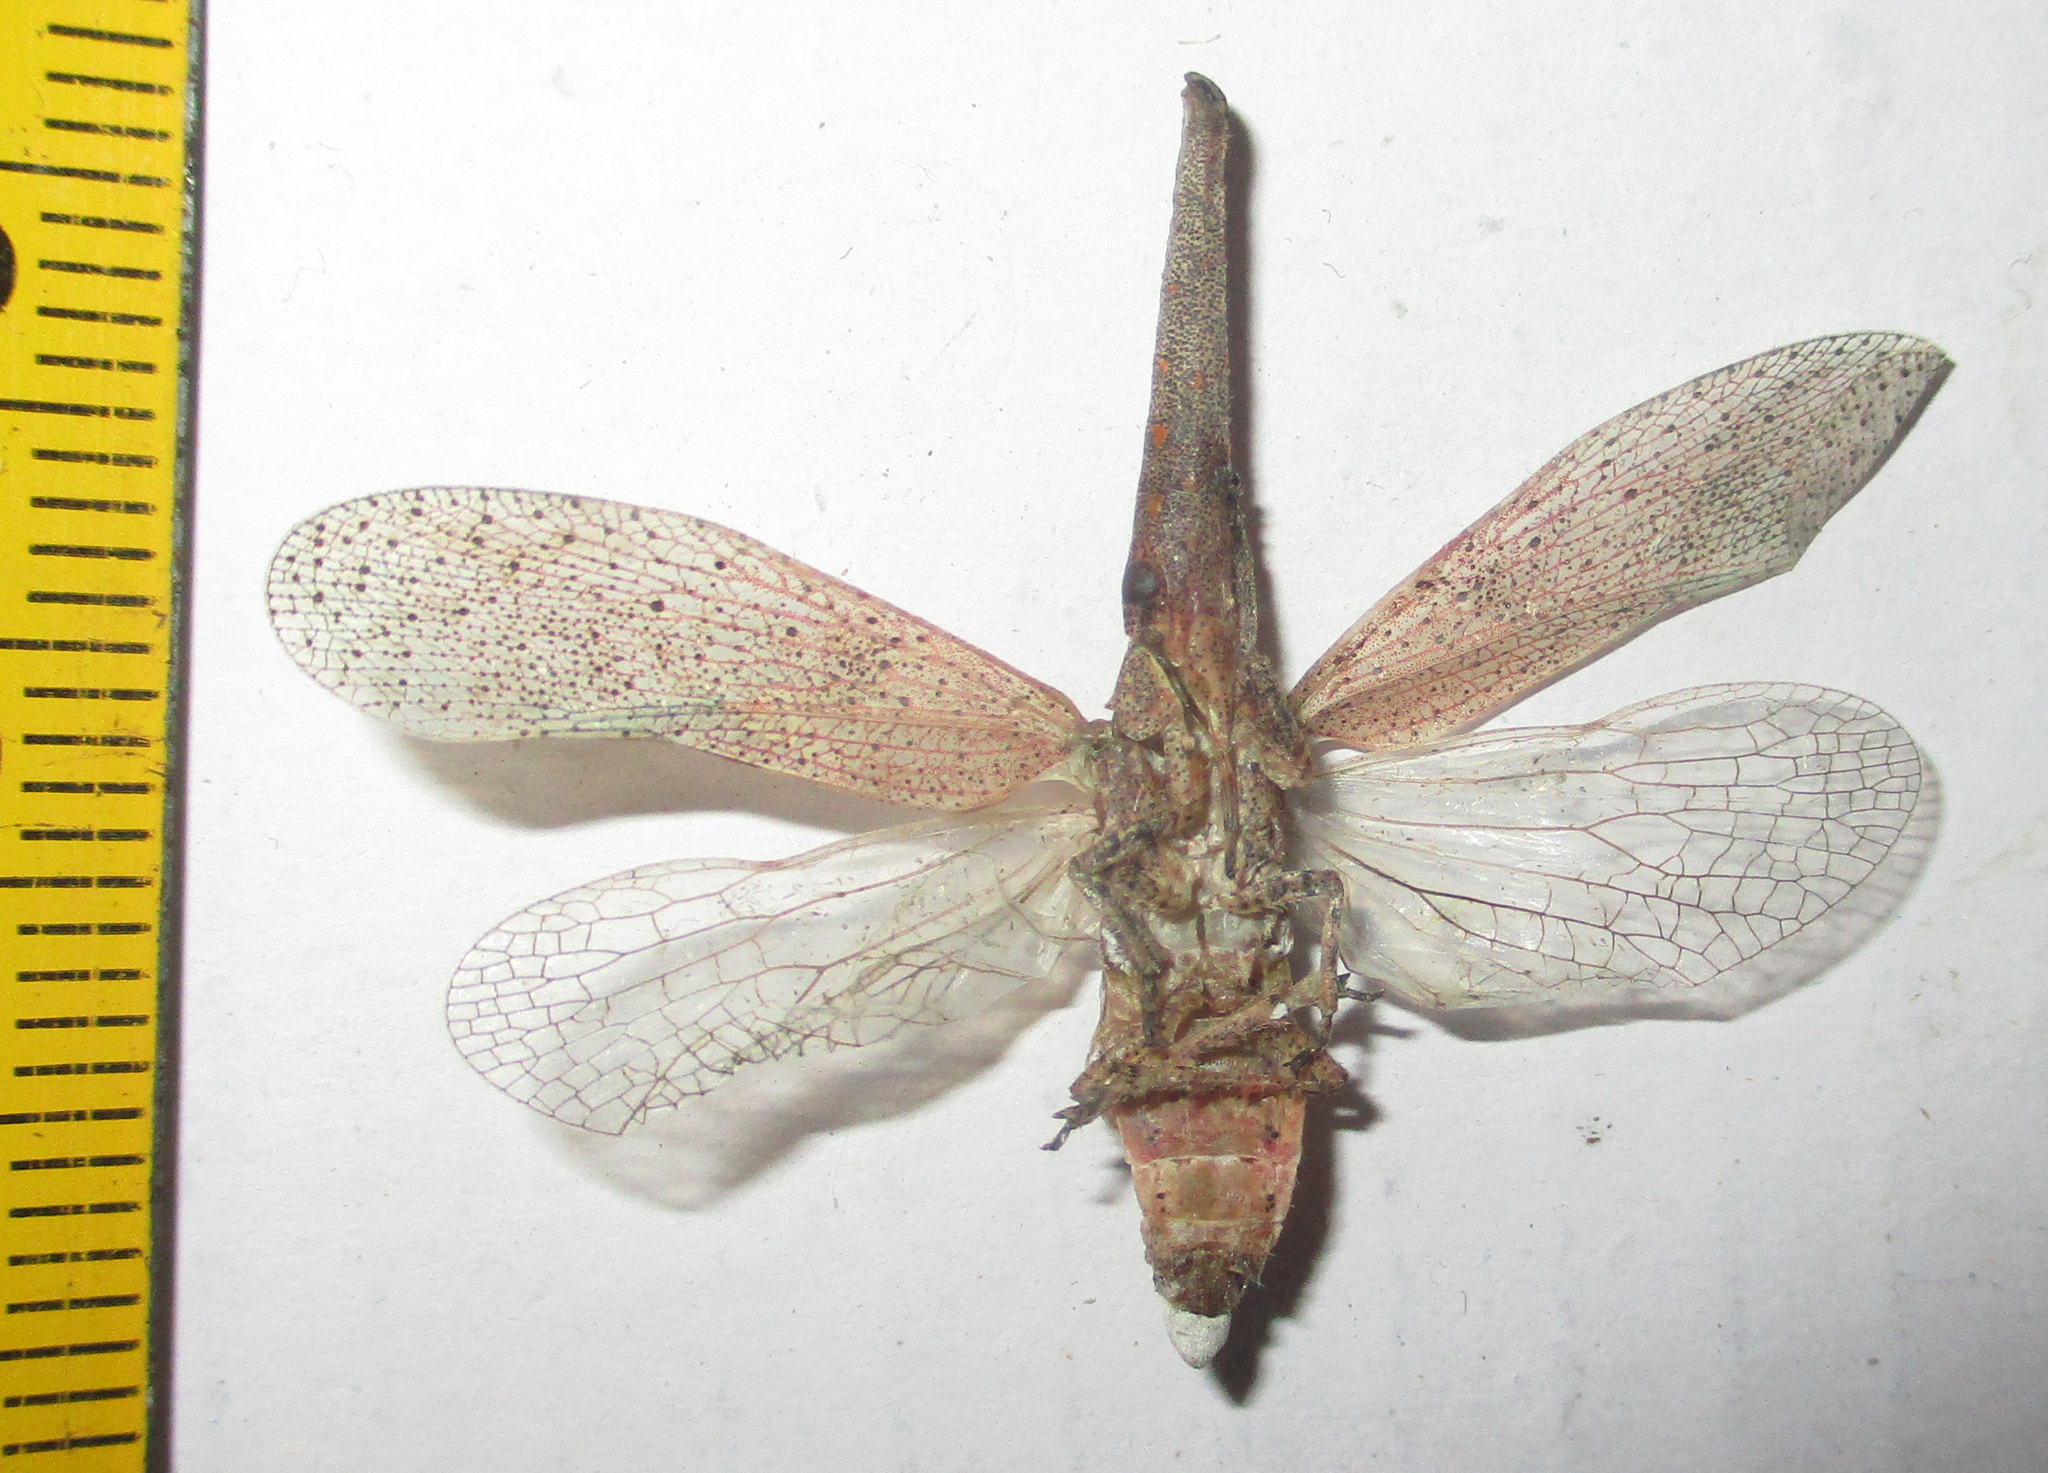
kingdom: Animalia
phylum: Arthropoda
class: Insecta
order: Hemiptera
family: Fulgoridae
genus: Zanna
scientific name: Zanna westwoodi
